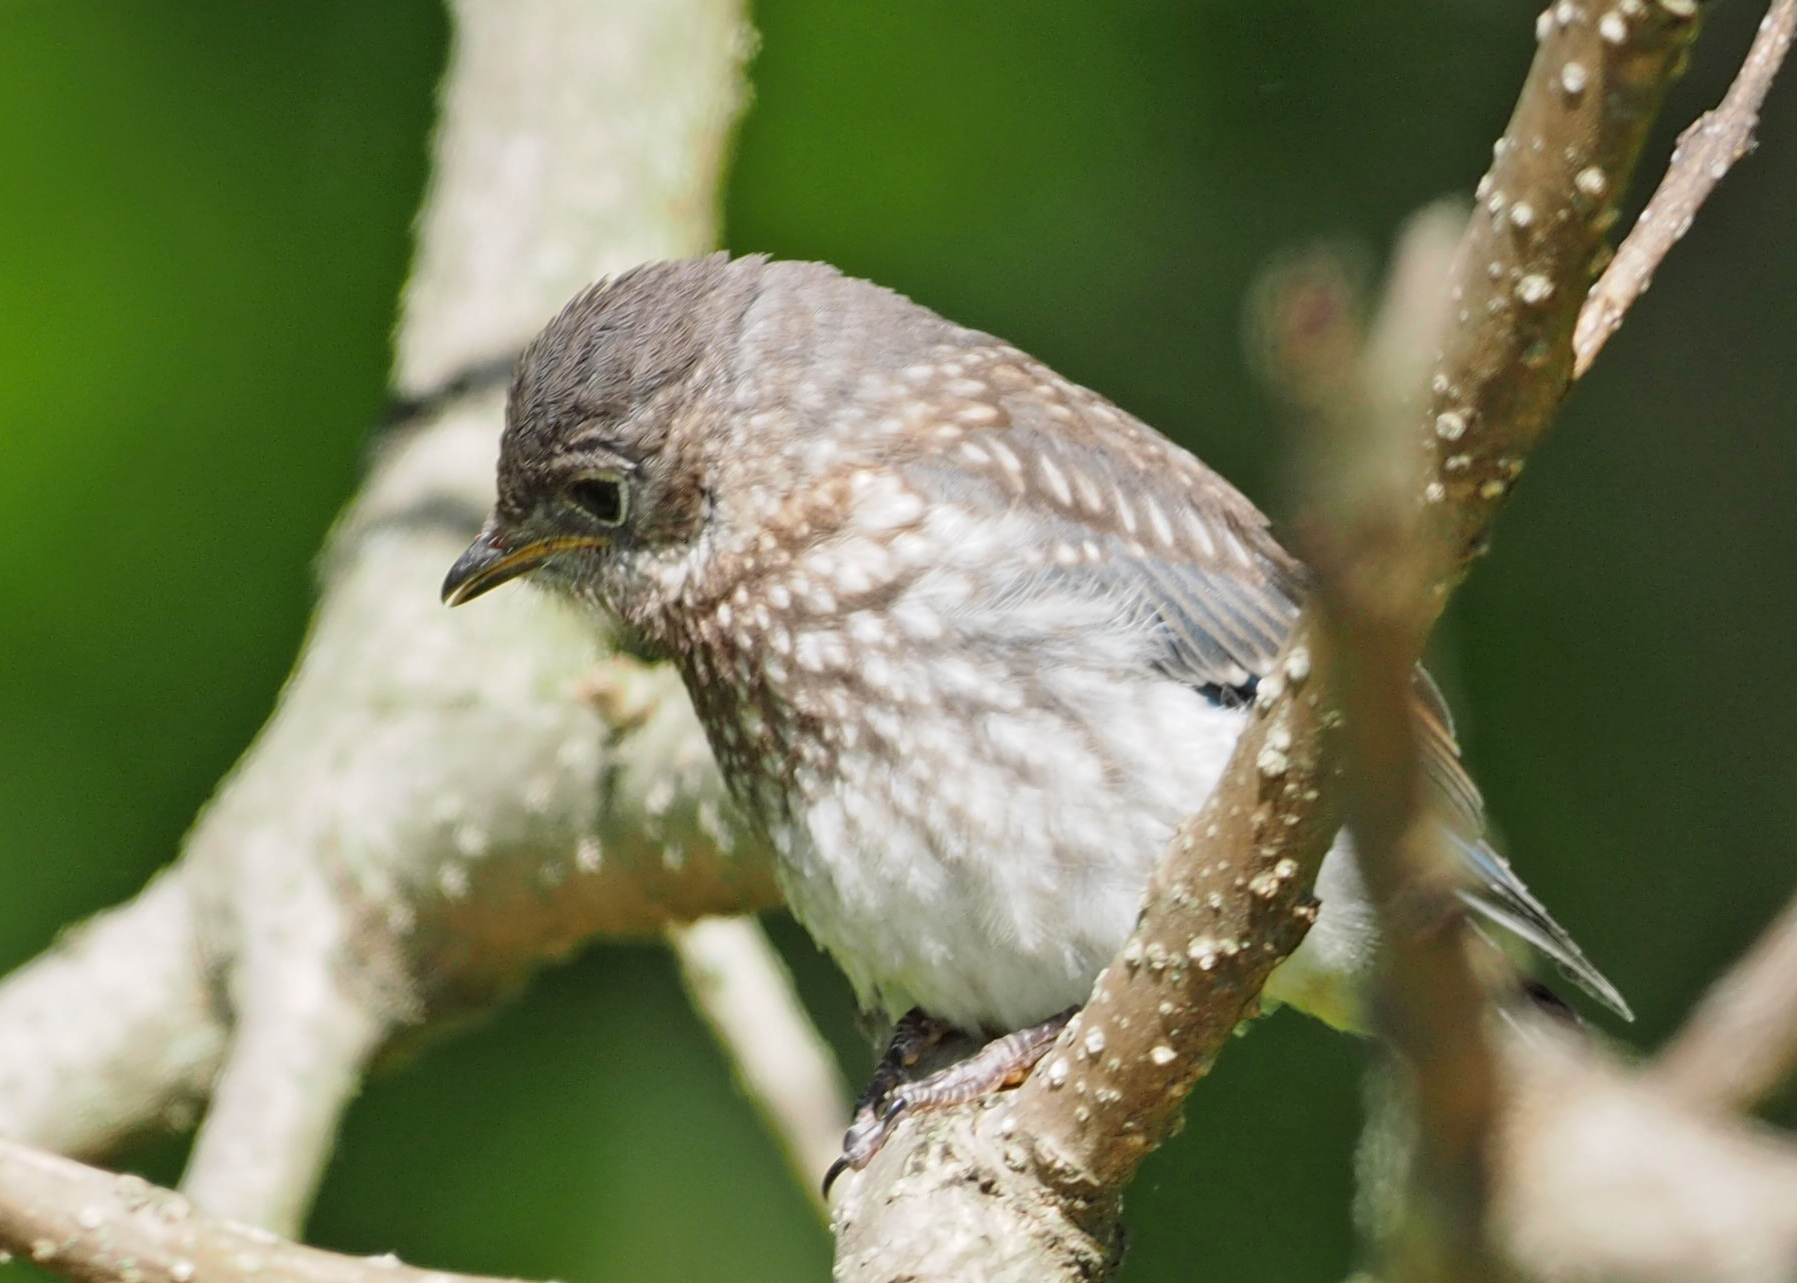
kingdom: Animalia
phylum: Chordata
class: Aves
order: Passeriformes
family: Turdidae
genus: Sialia
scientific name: Sialia sialis
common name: Eastern bluebird
